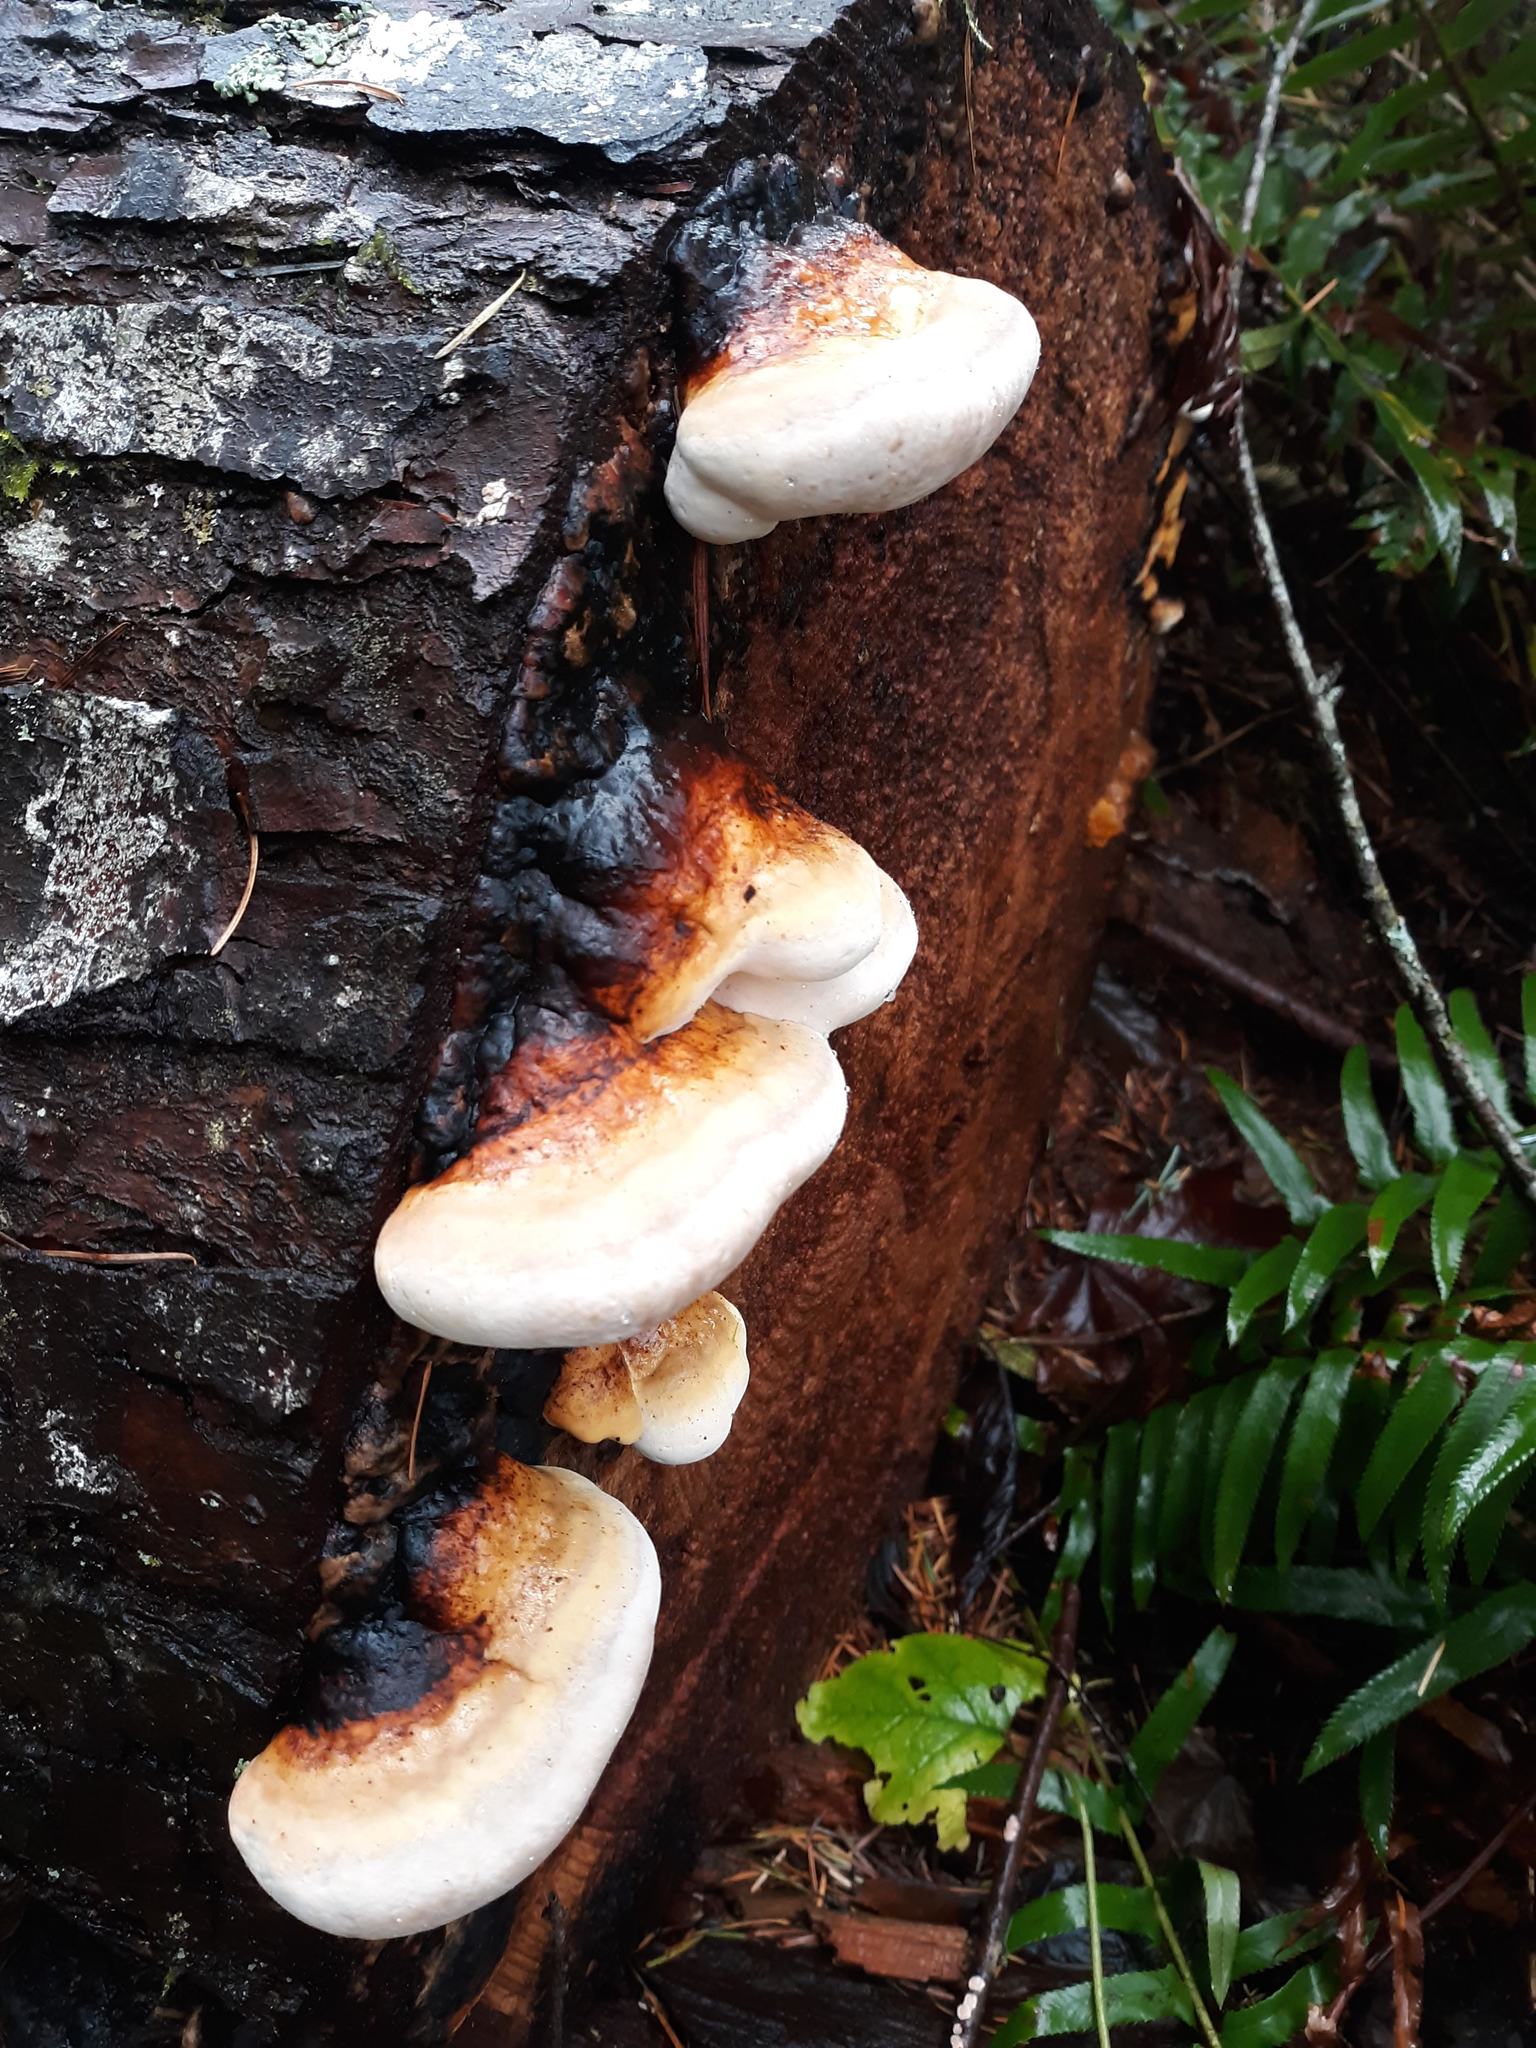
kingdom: Fungi
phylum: Basidiomycota
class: Agaricomycetes
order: Polyporales
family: Fomitopsidaceae
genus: Fomitopsis
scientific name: Fomitopsis mounceae
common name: Northern red belt
